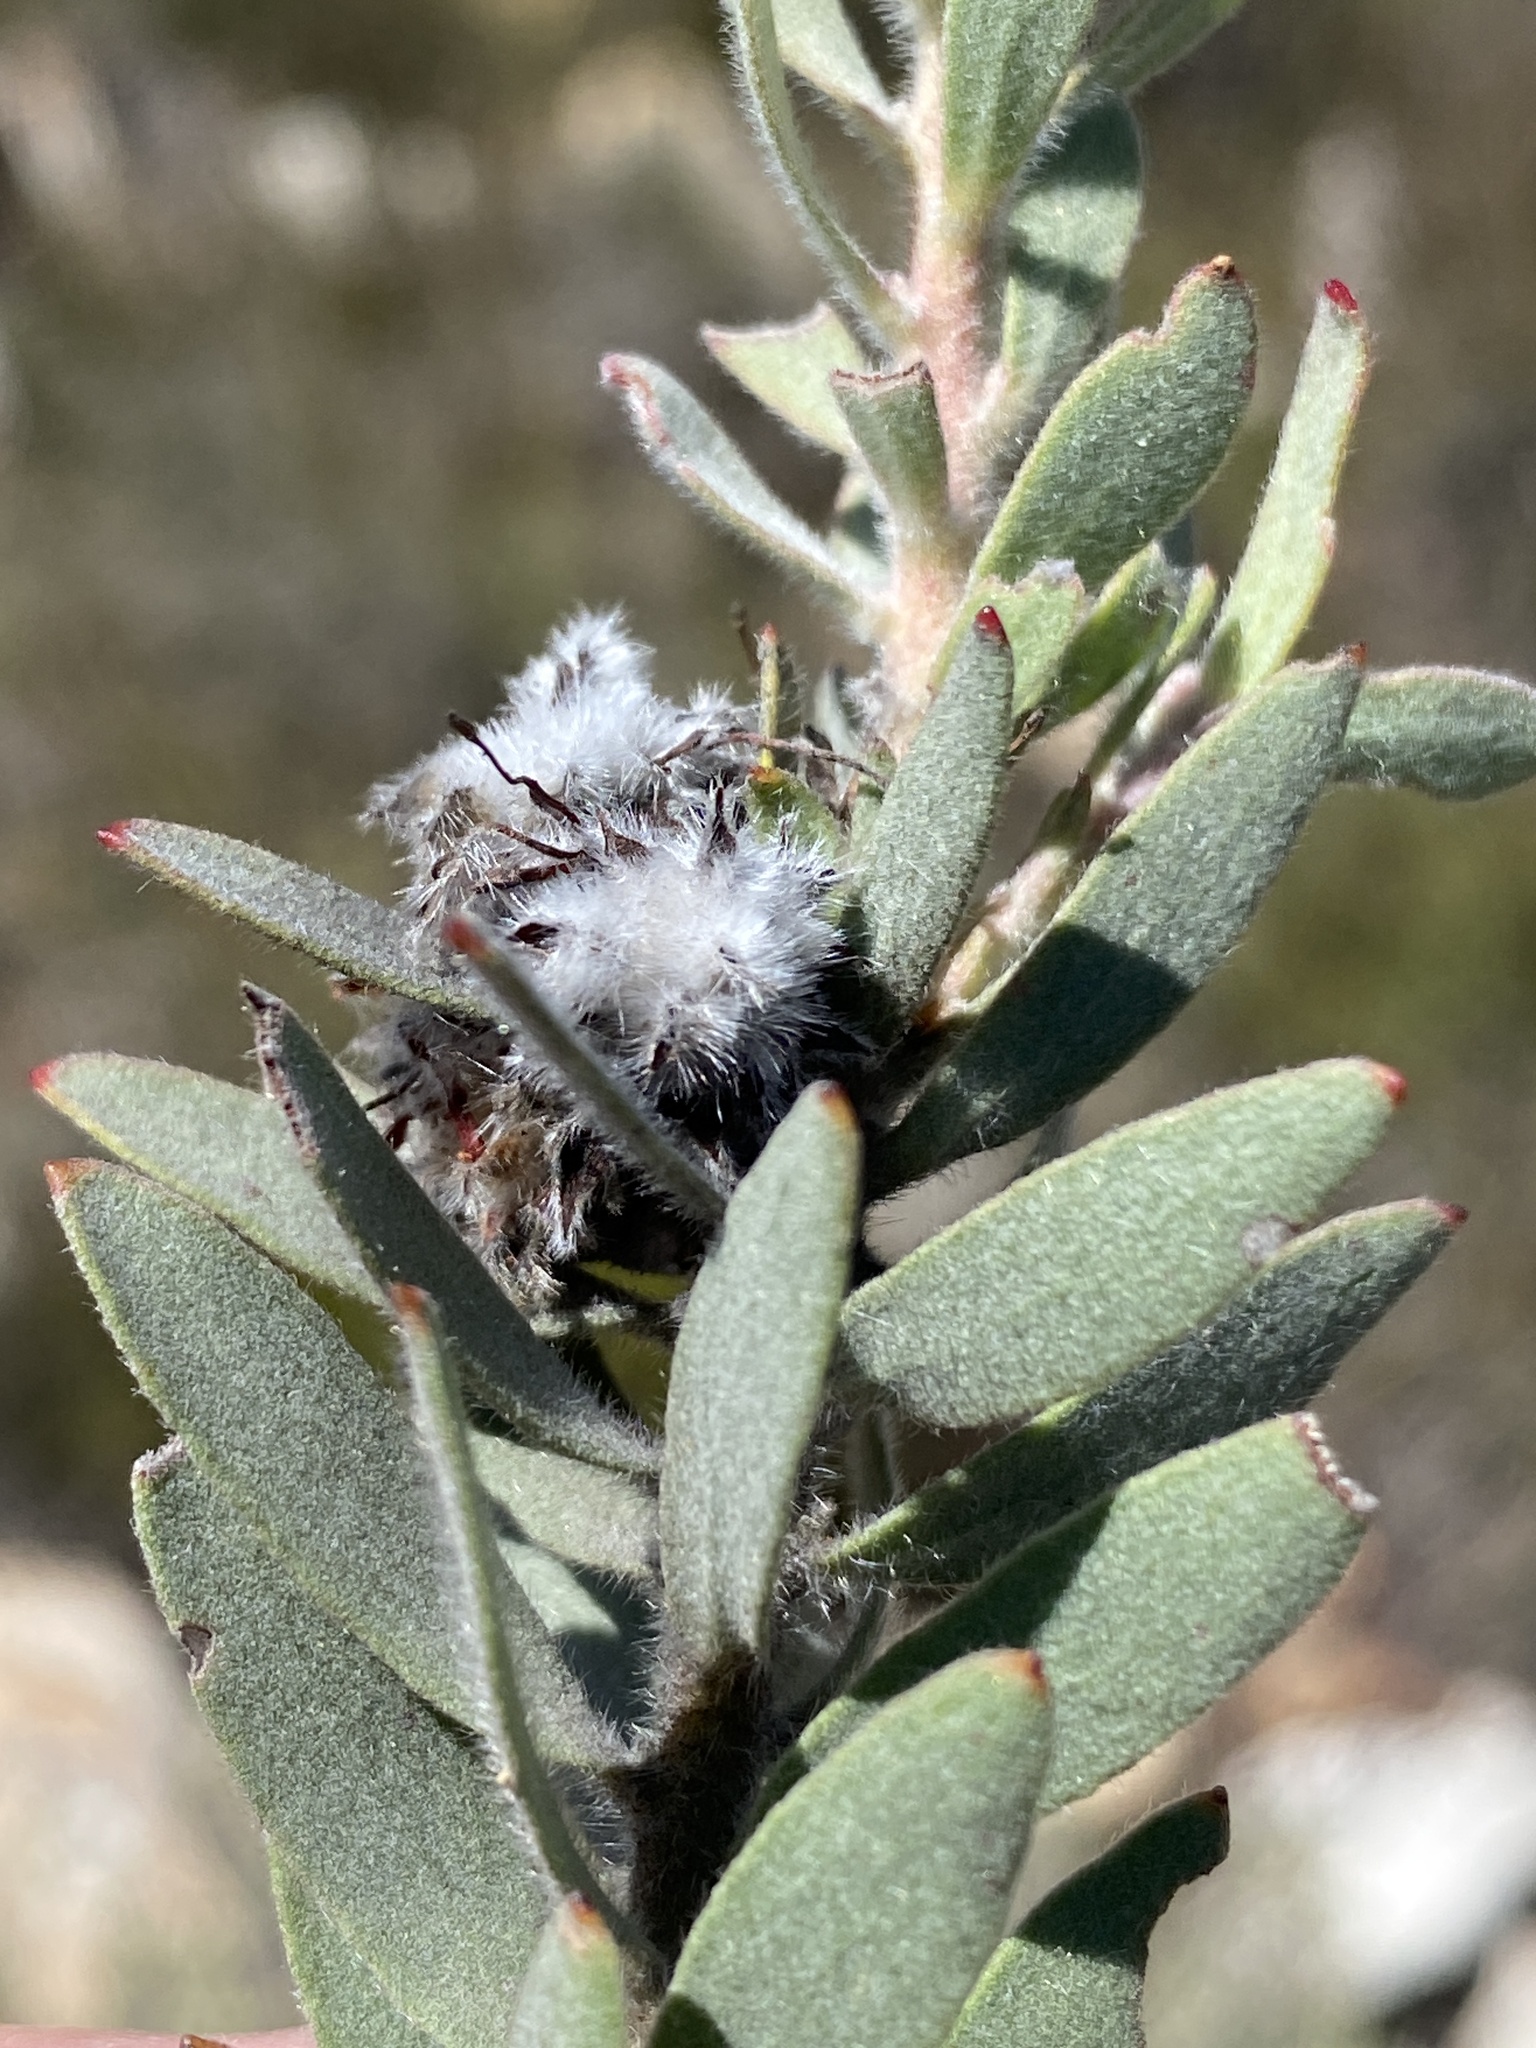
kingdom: Plantae
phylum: Tracheophyta
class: Magnoliopsida
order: Proteales
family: Proteaceae
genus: Leucospermum
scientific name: Leucospermum wittebergense
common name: Swartberg pincushion
